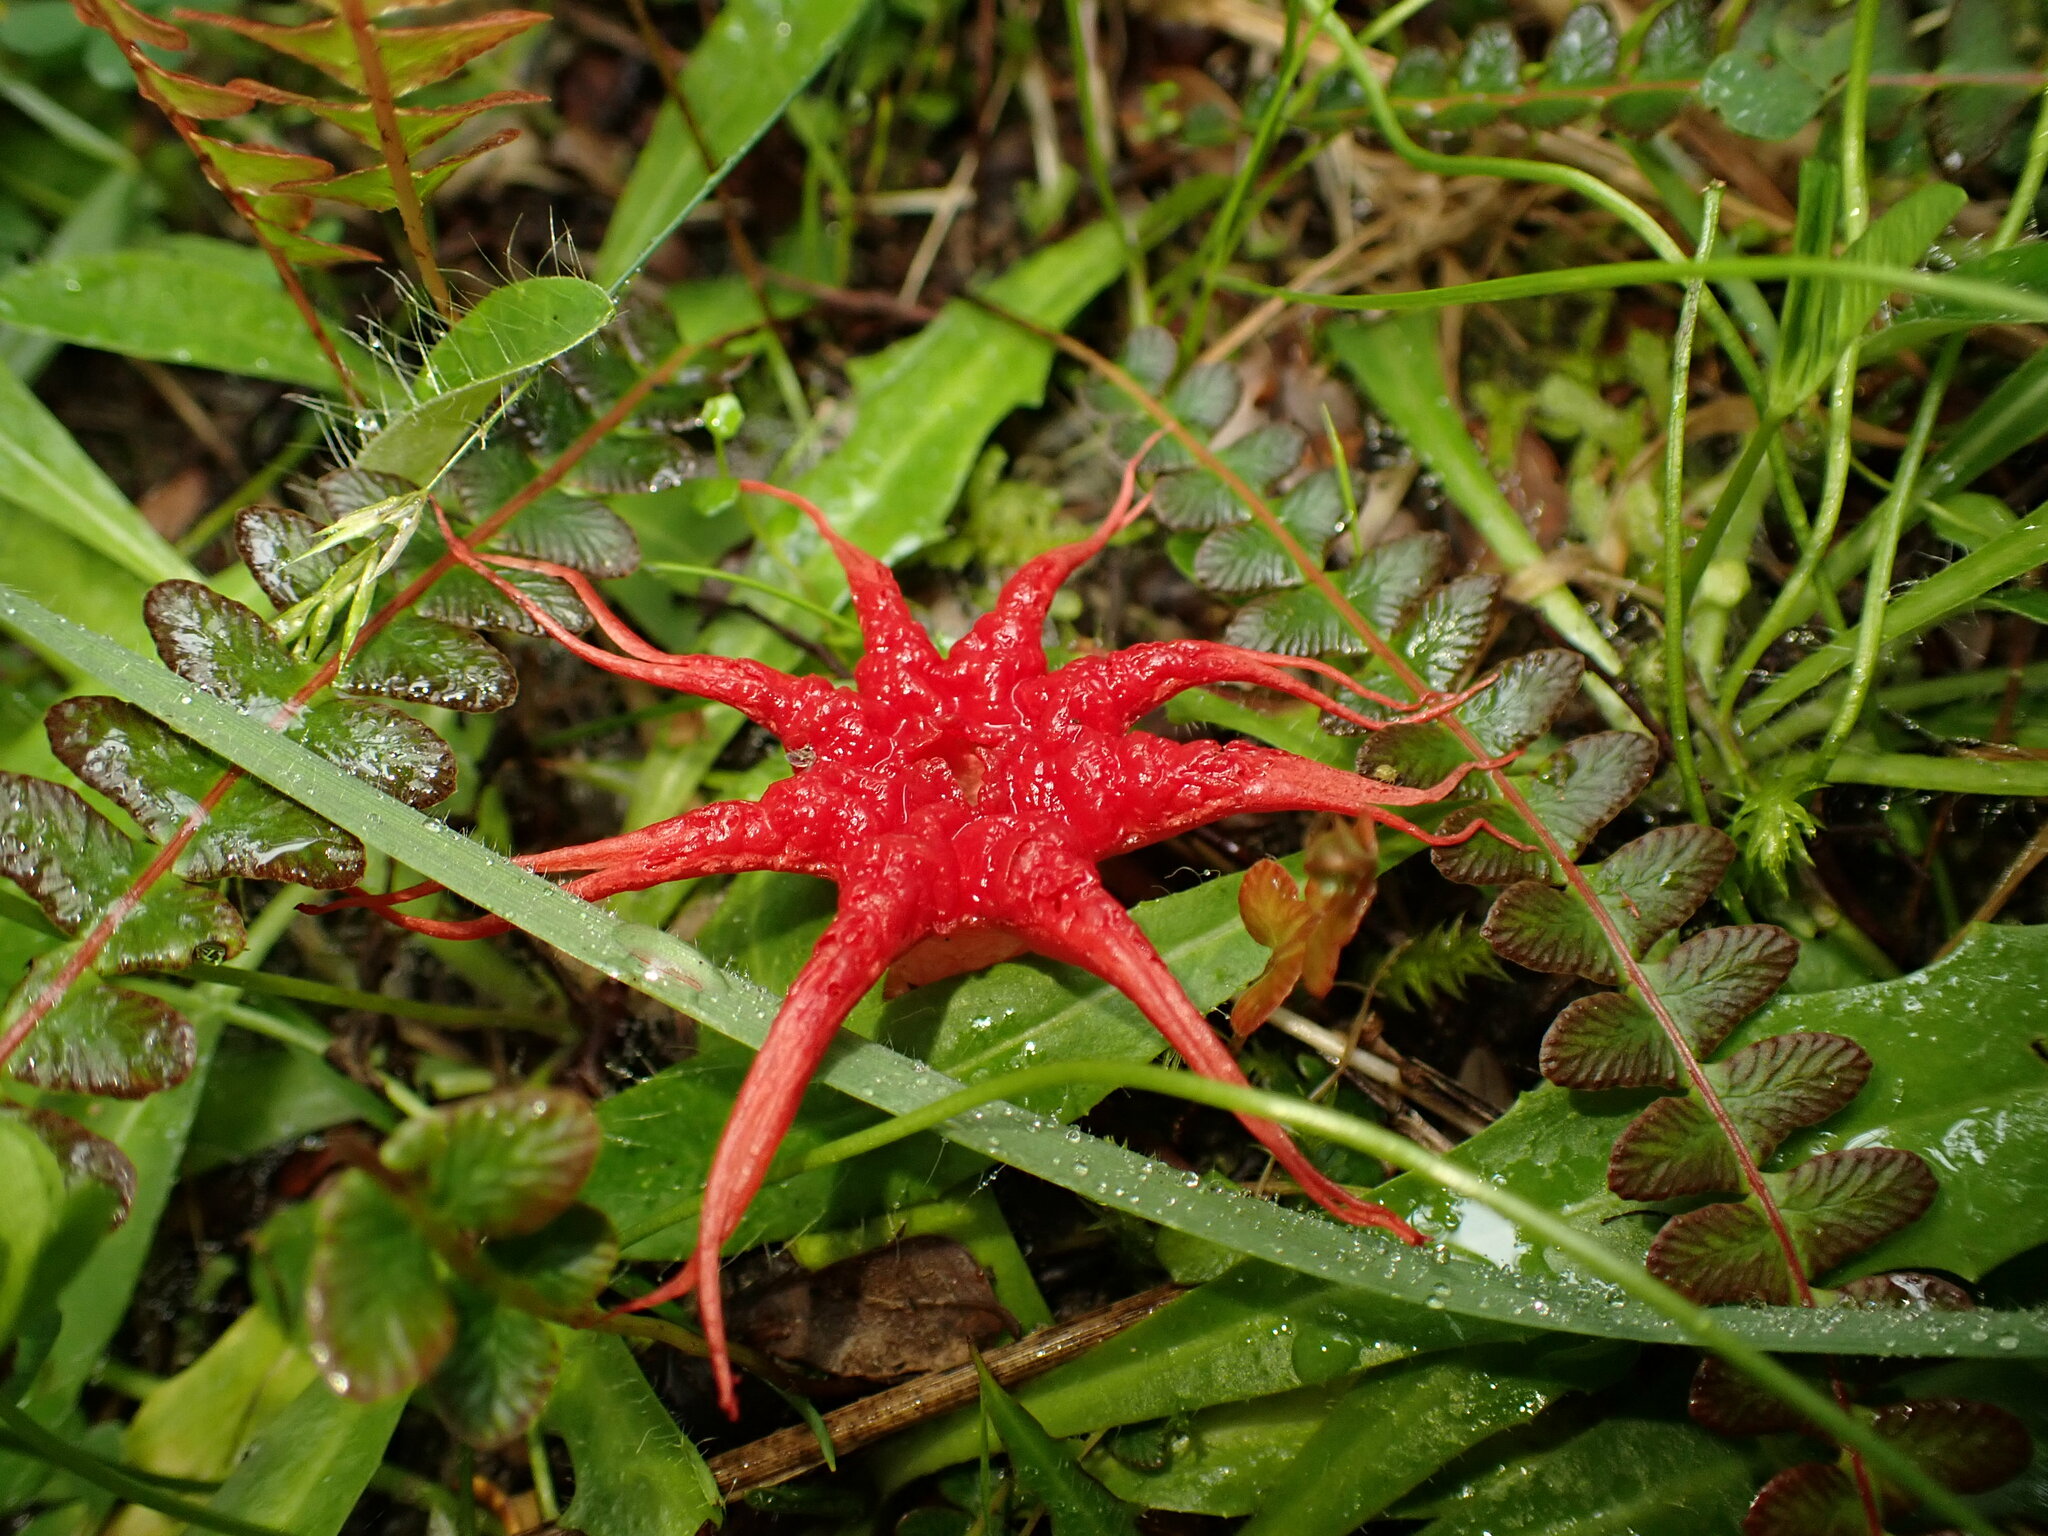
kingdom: Fungi
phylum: Basidiomycota
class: Agaricomycetes
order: Phallales
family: Phallaceae
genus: Aseroe
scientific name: Aseroe rubra
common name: Starfish fungus
